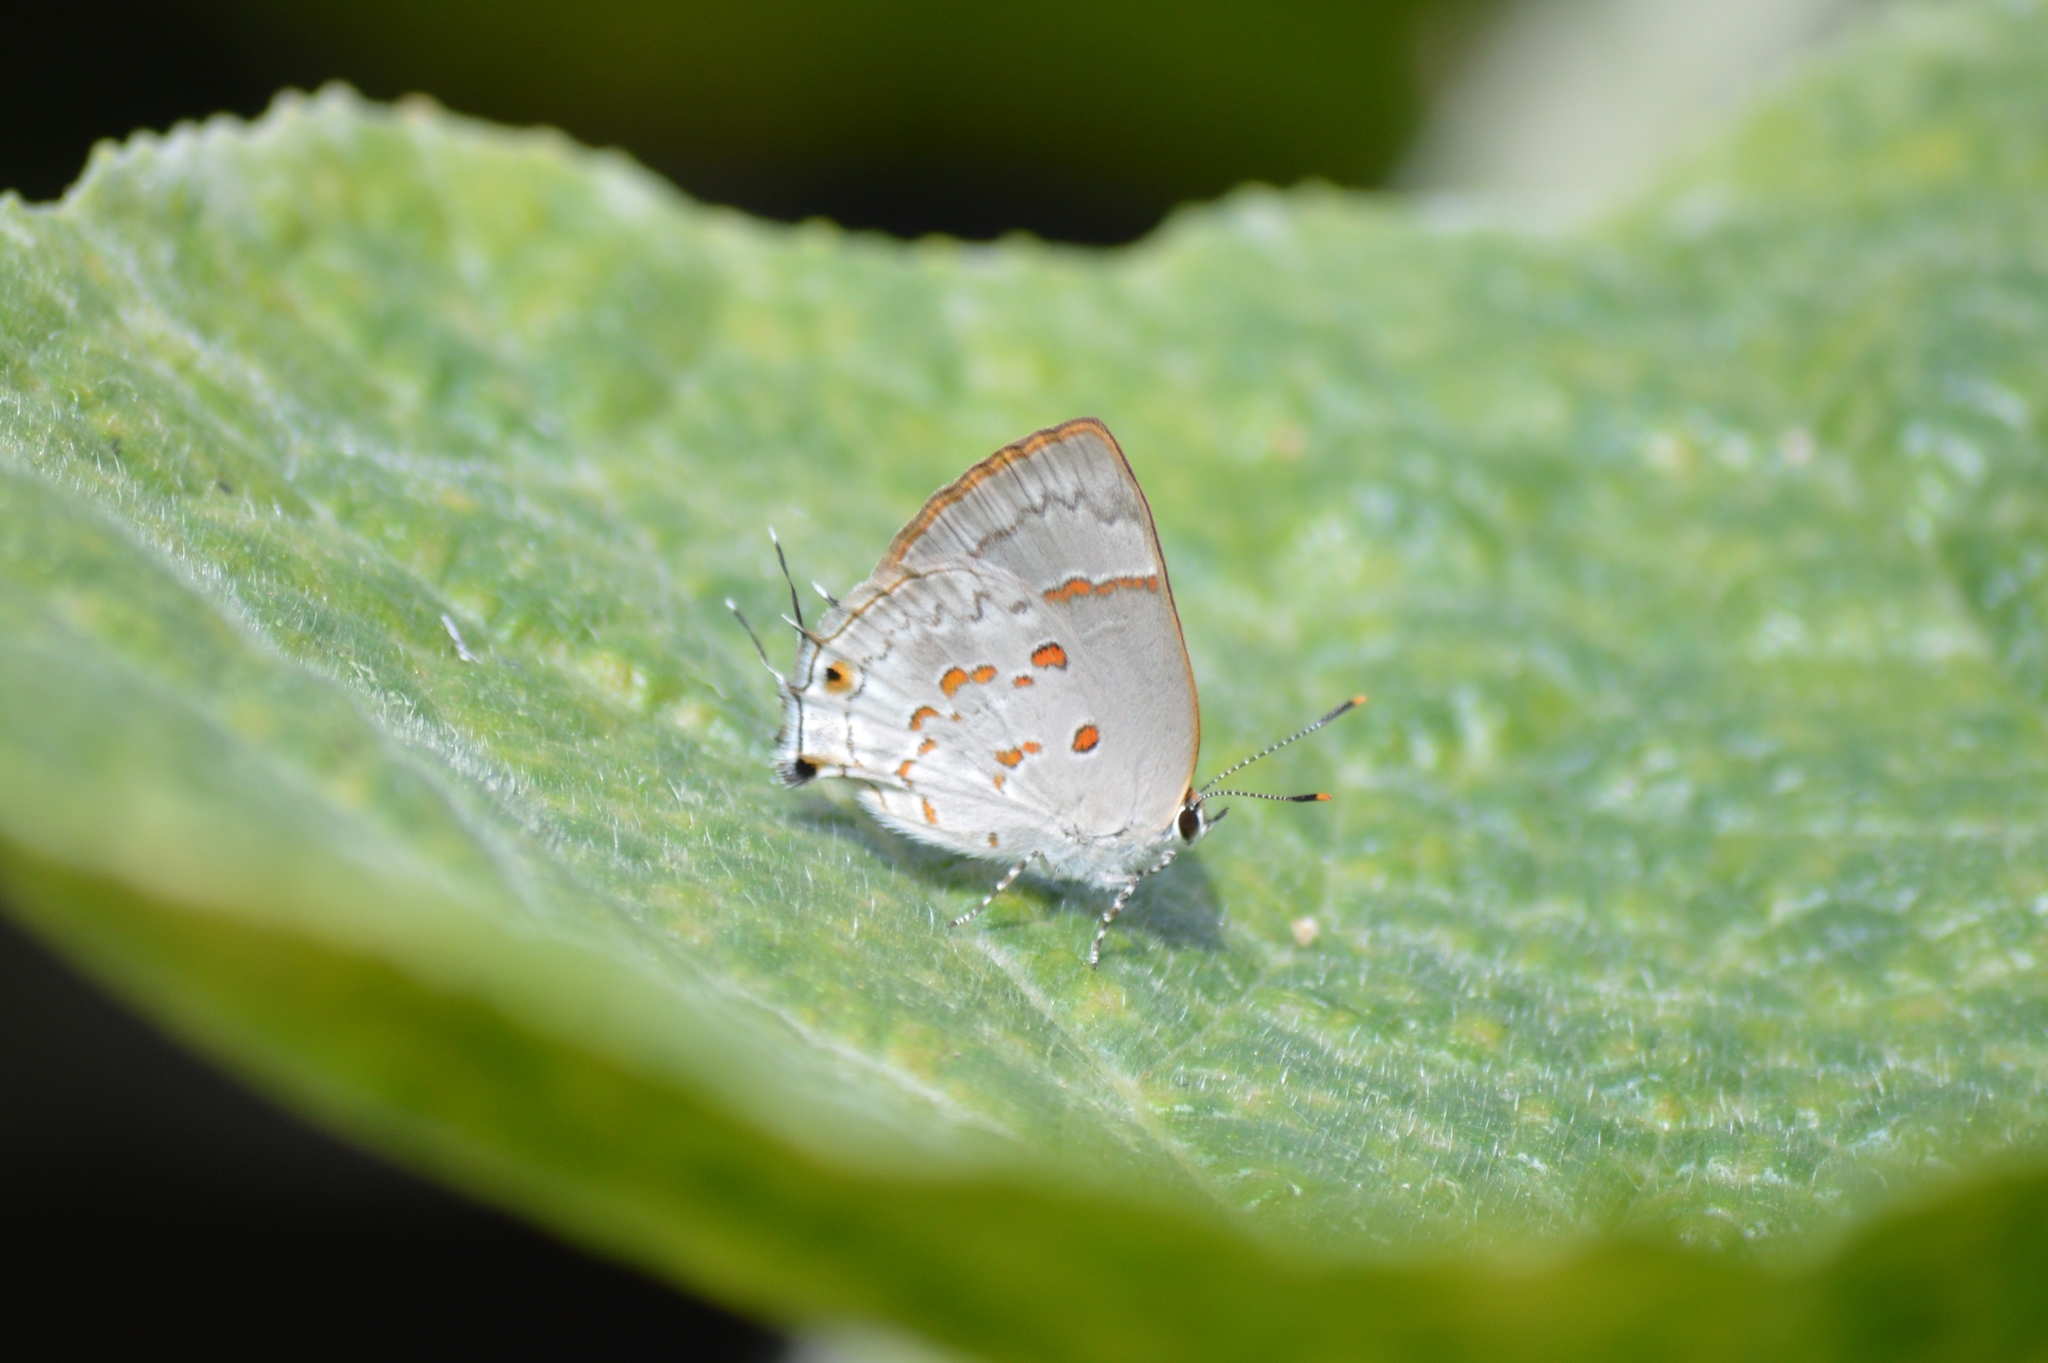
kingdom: Animalia
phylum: Arthropoda
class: Insecta
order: Lepidoptera
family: Lycaenidae
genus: Tmolus
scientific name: Tmolus echion
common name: Red-spotted hairstreak
